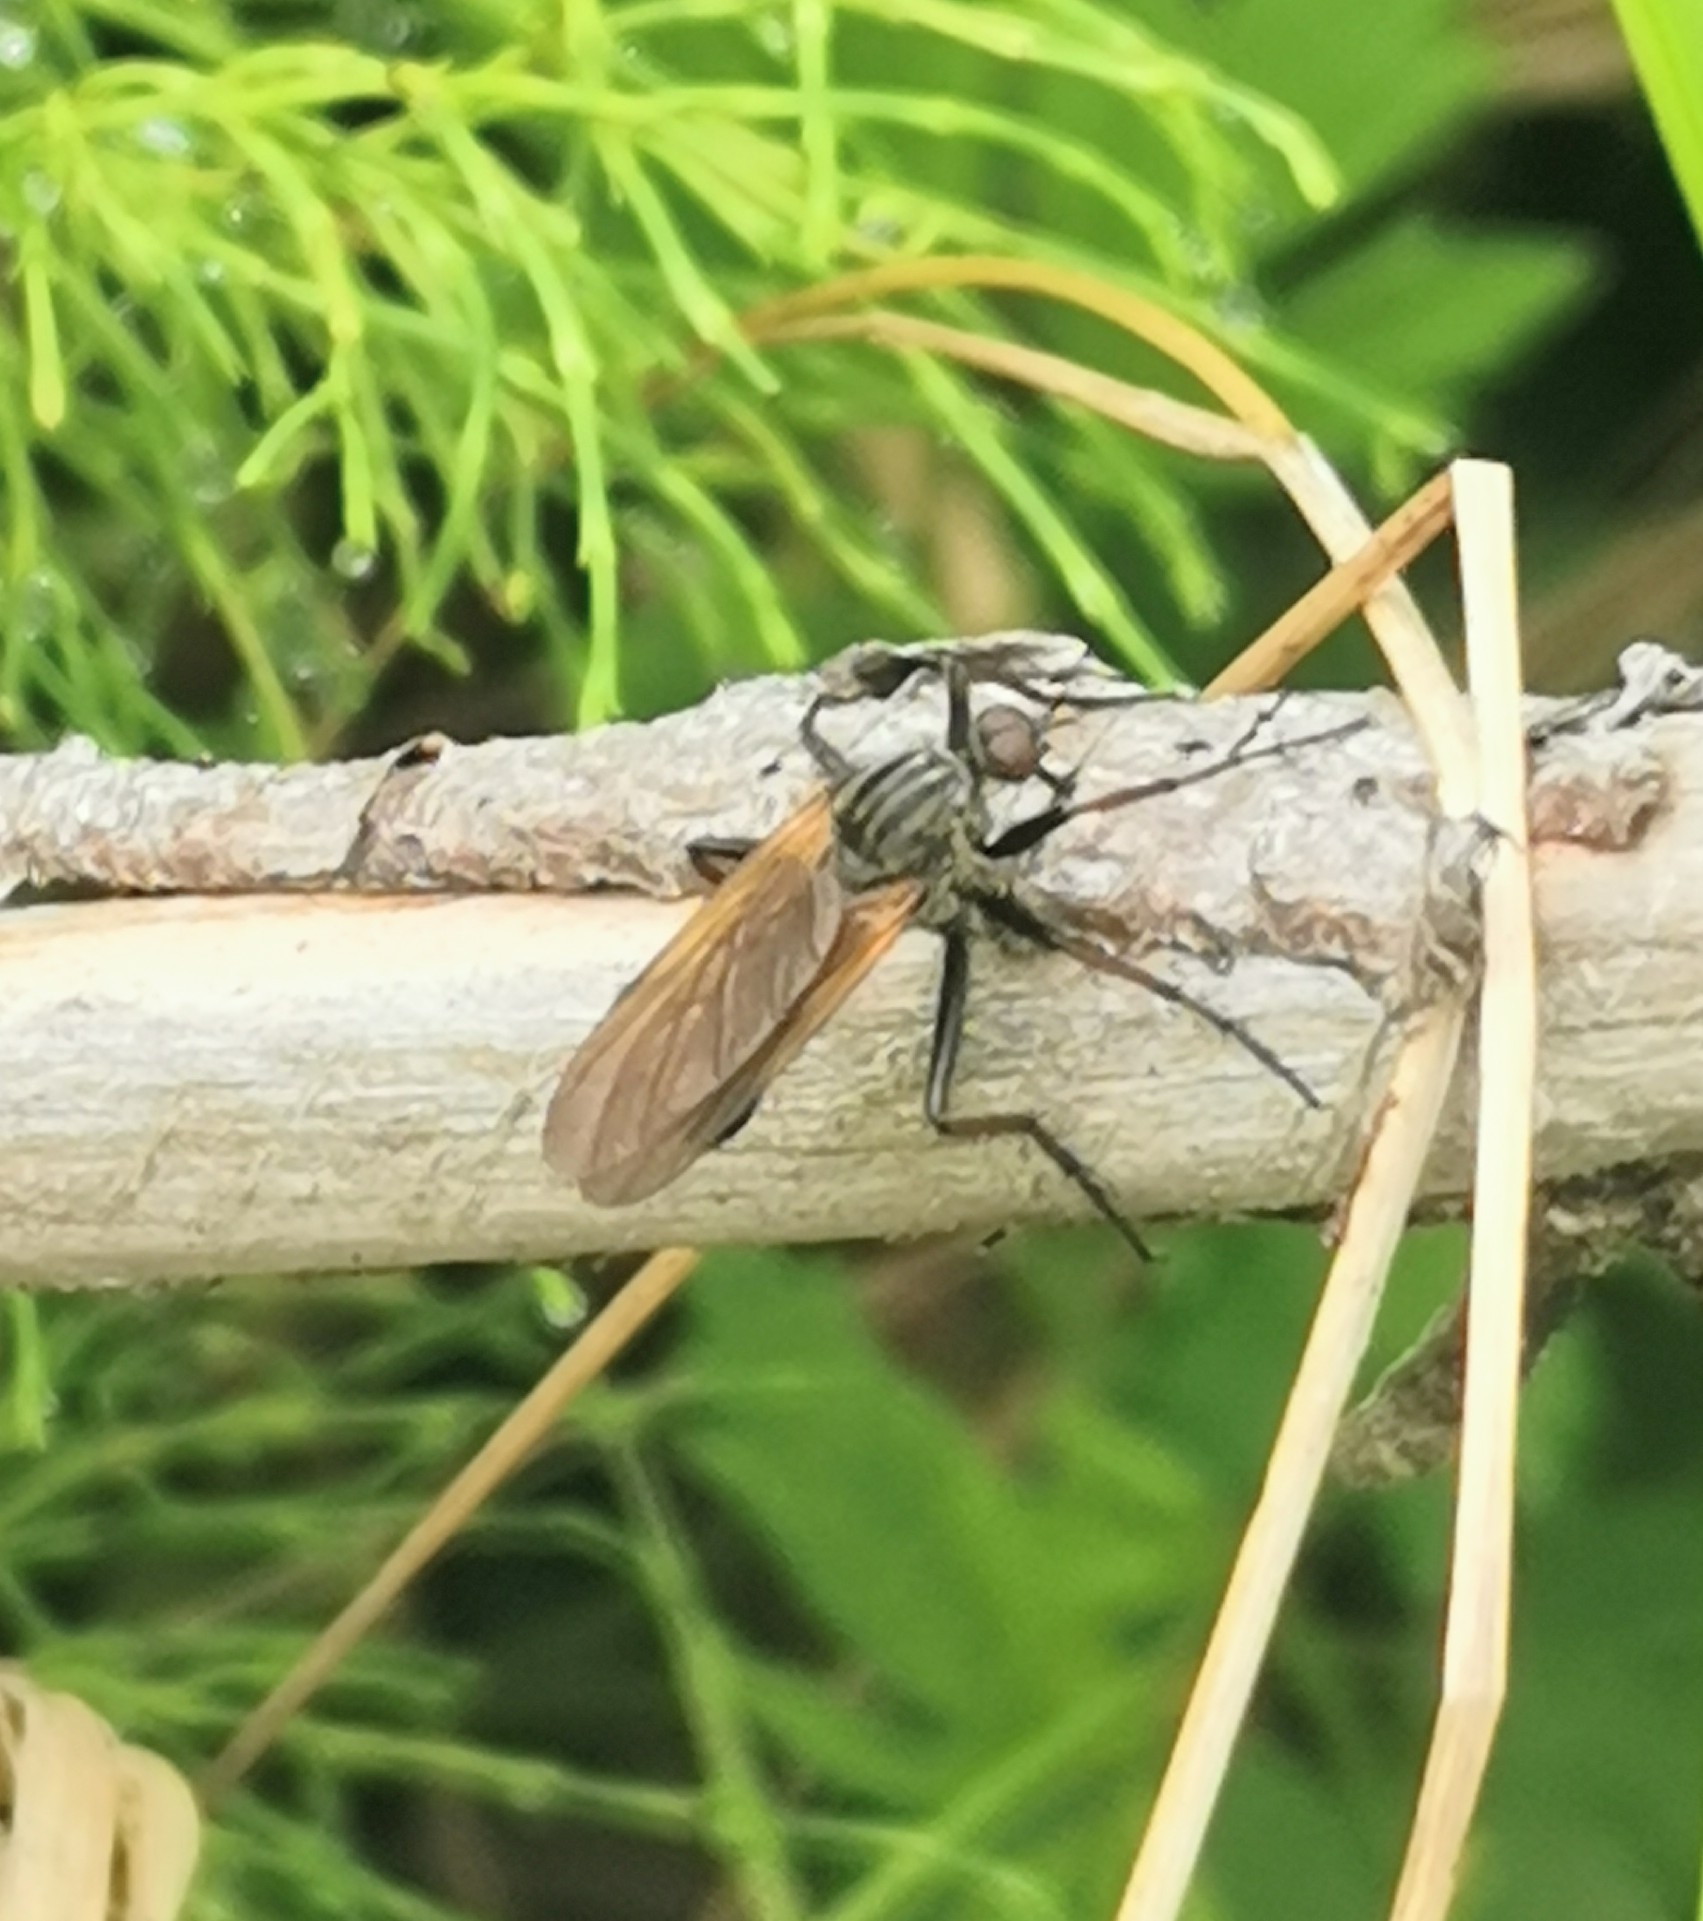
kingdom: Animalia
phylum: Arthropoda
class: Insecta
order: Diptera
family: Empididae
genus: Empis
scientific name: Empis tessellata
